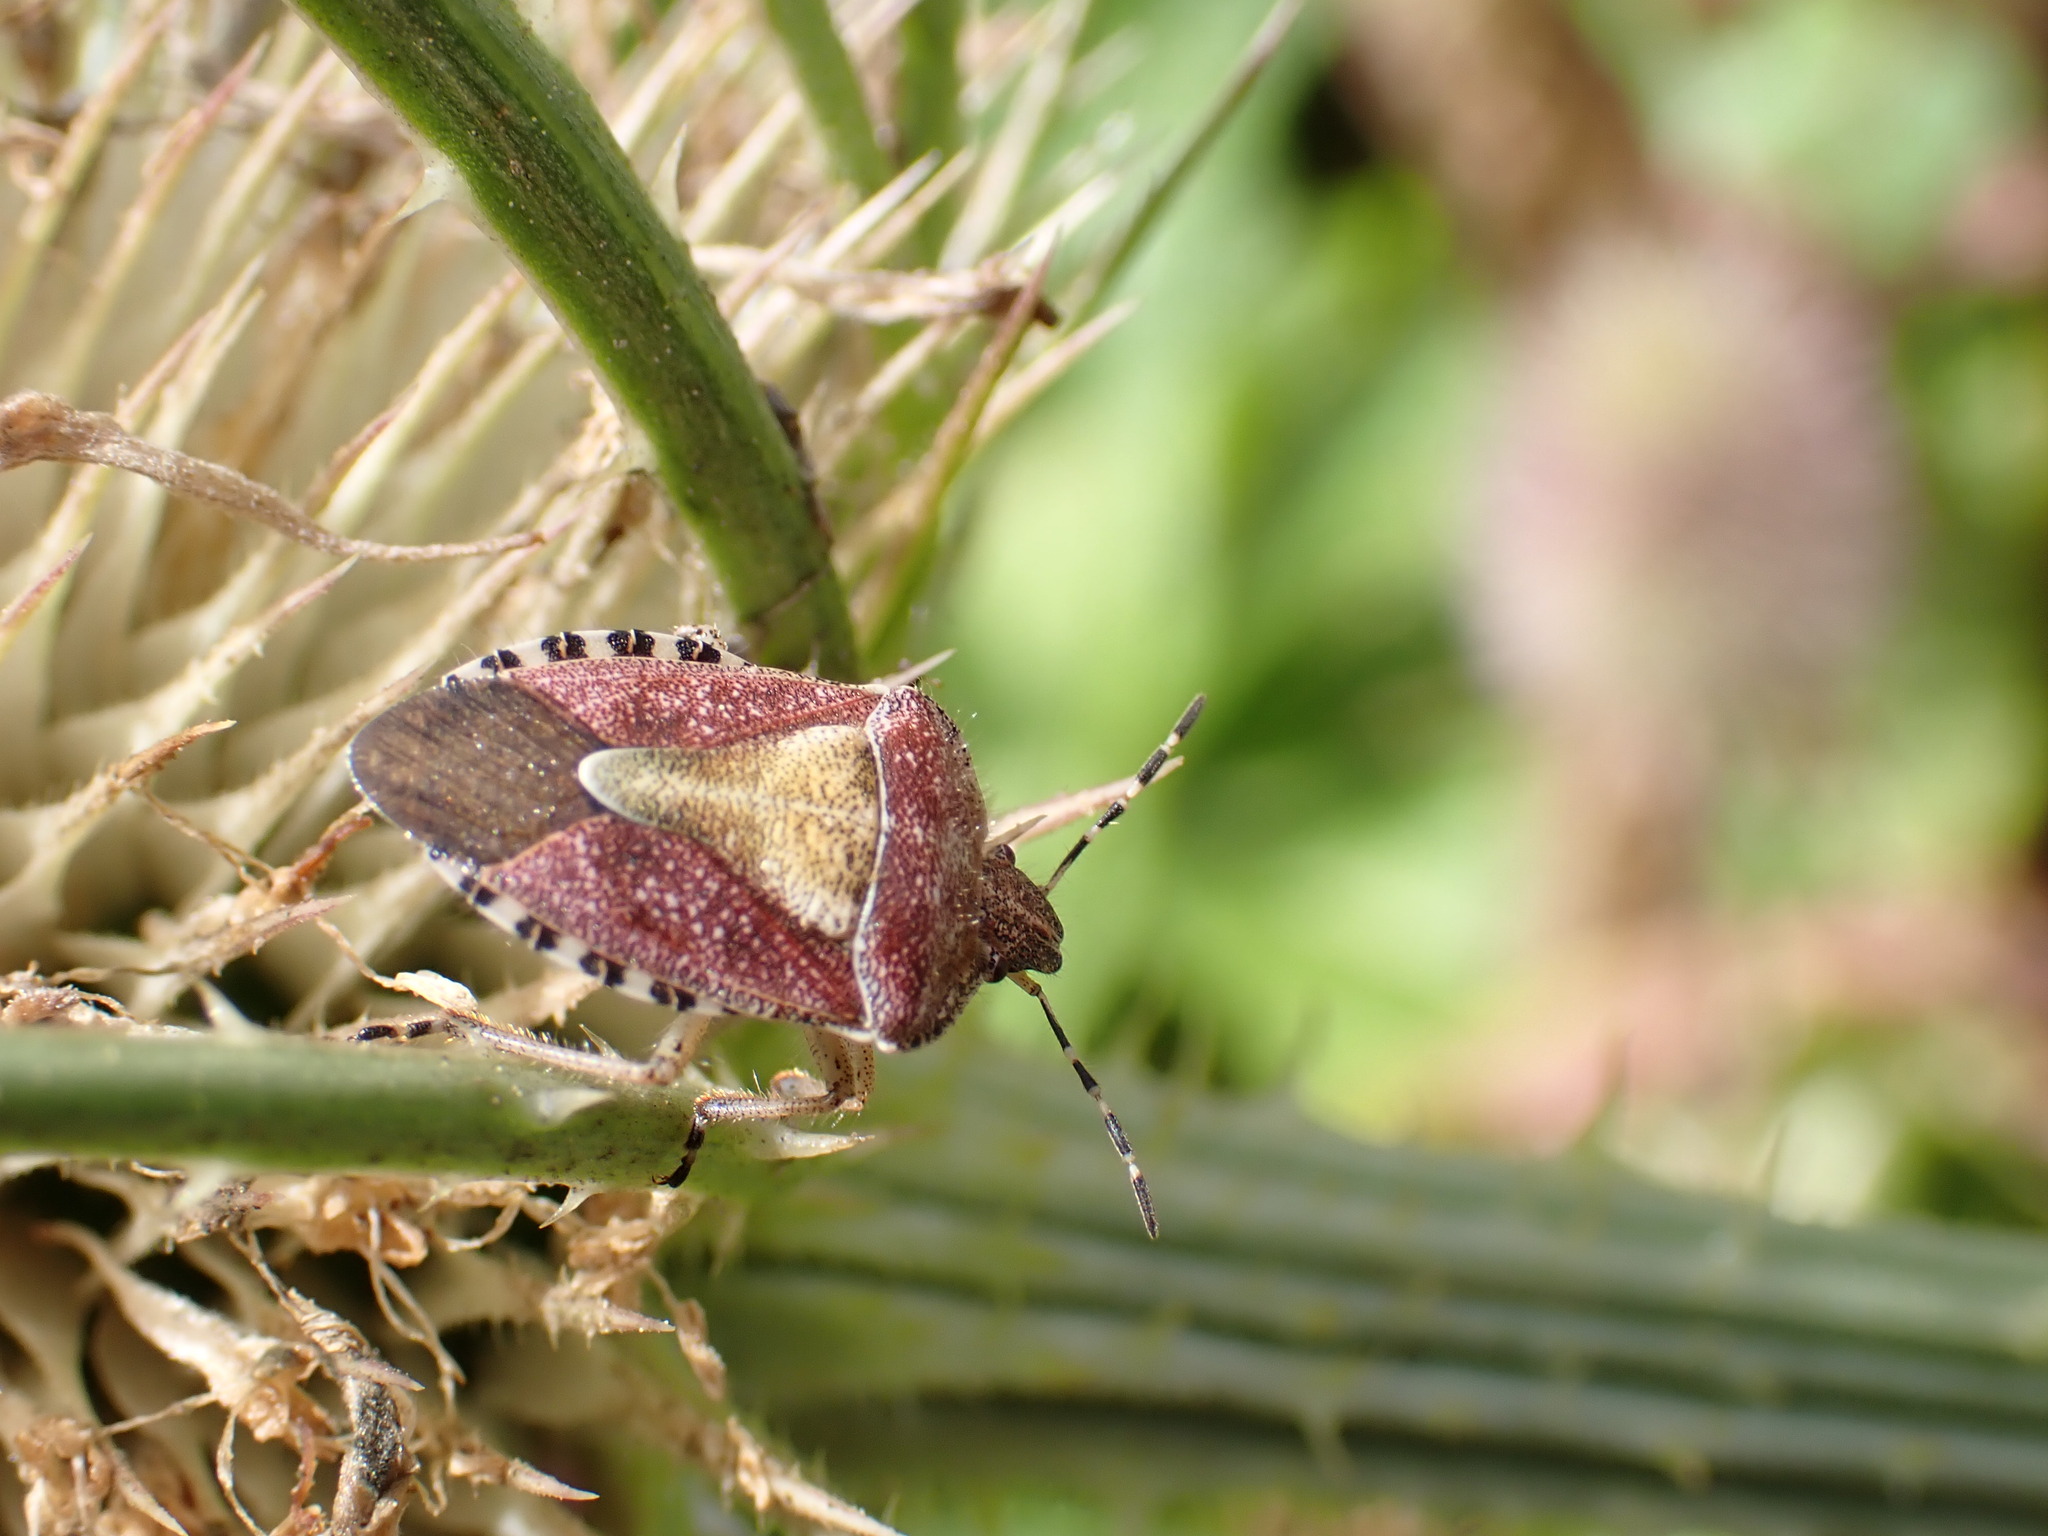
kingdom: Animalia
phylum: Arthropoda
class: Insecta
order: Hemiptera
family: Pentatomidae
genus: Dolycoris
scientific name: Dolycoris baccarum
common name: Sloe bug
